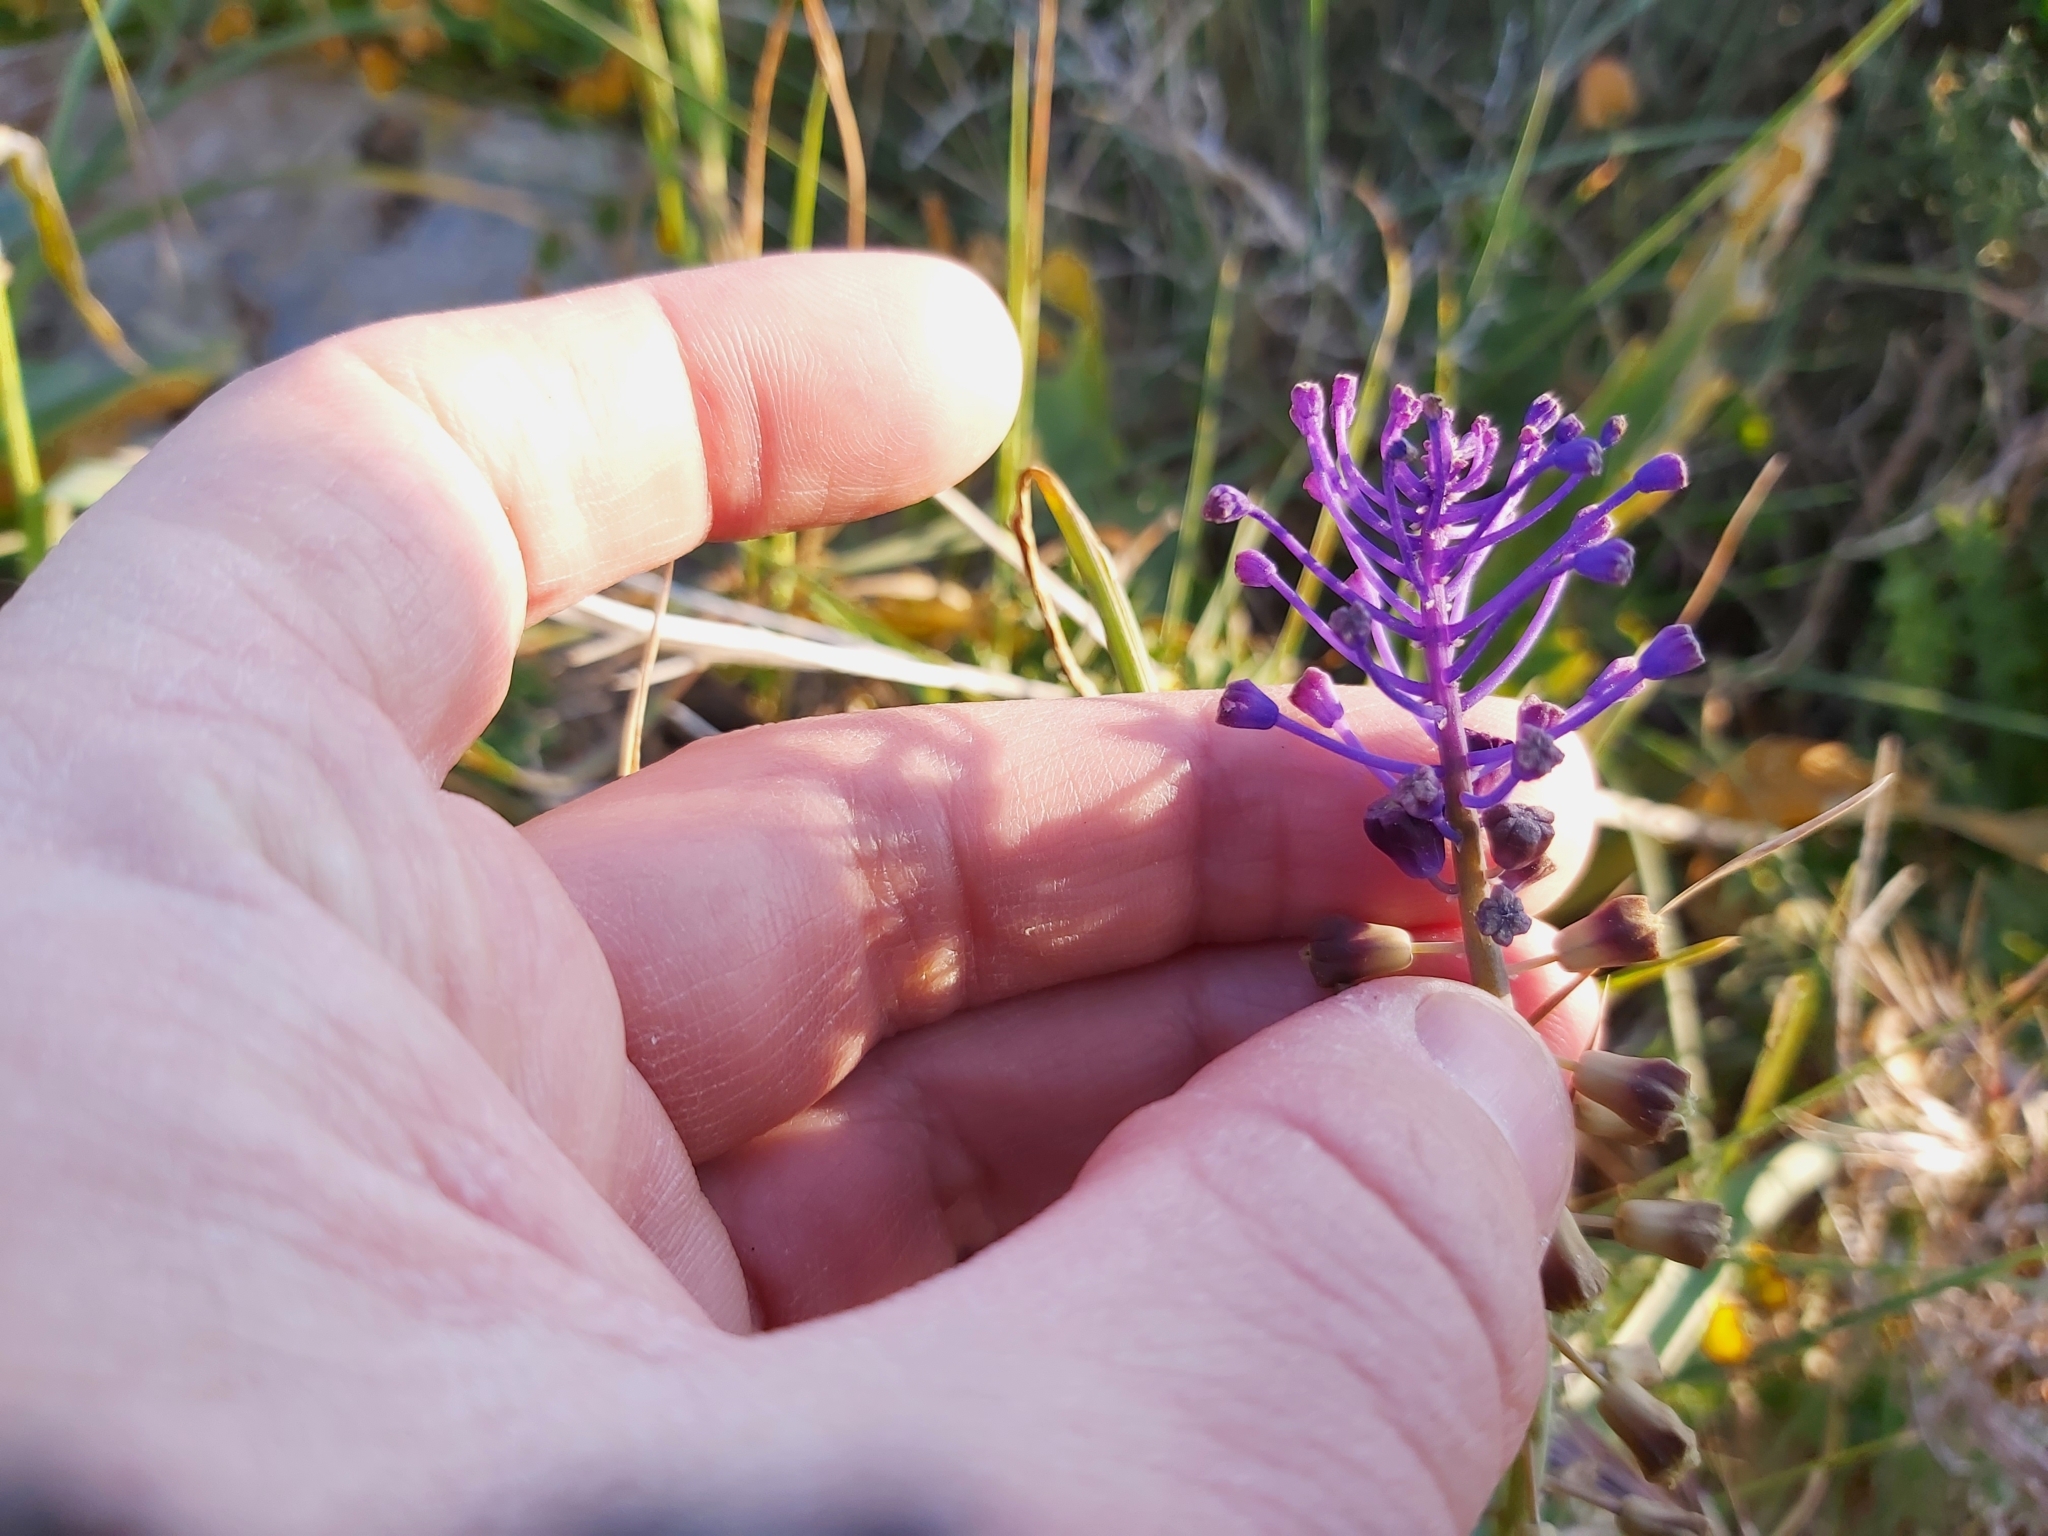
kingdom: Plantae
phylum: Tracheophyta
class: Liliopsida
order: Asparagales
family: Asparagaceae
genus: Muscari
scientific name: Muscari comosum
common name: Tassel hyacinth
